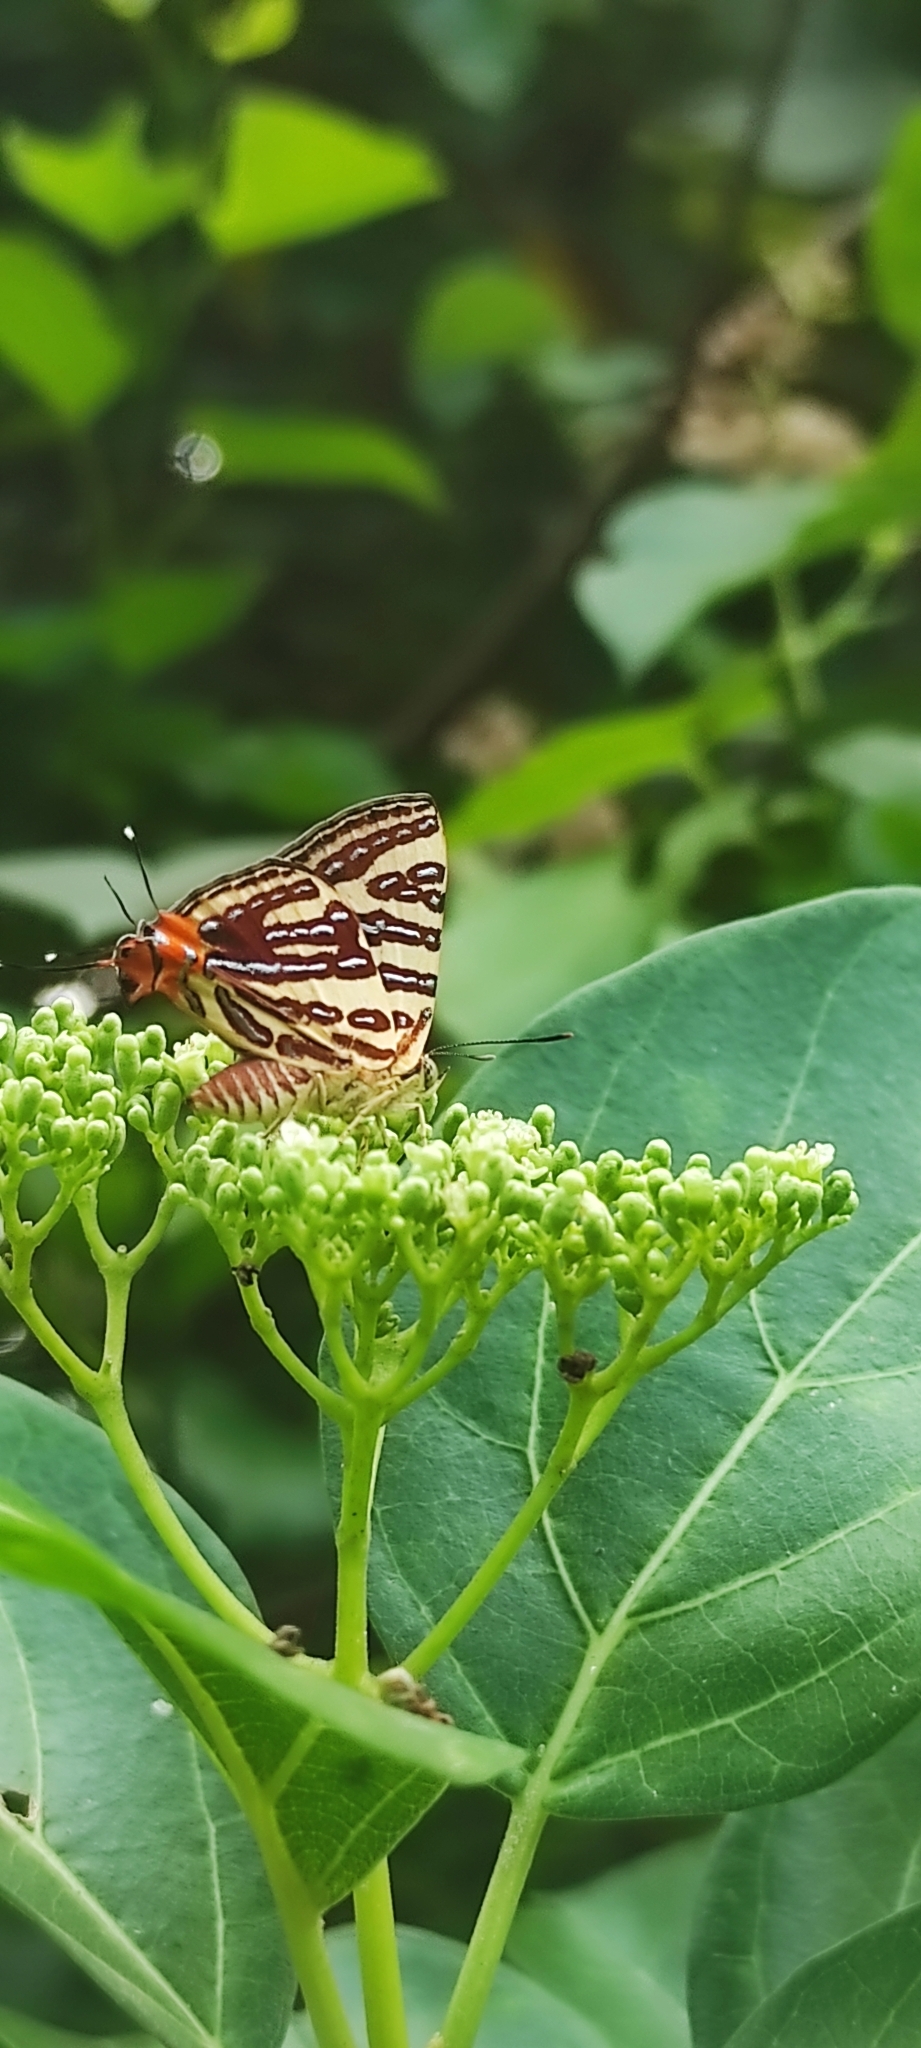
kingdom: Animalia
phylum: Arthropoda
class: Insecta
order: Lepidoptera
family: Lycaenidae
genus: Cigaritis
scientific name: Cigaritis lohita
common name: Long-banded silverline
